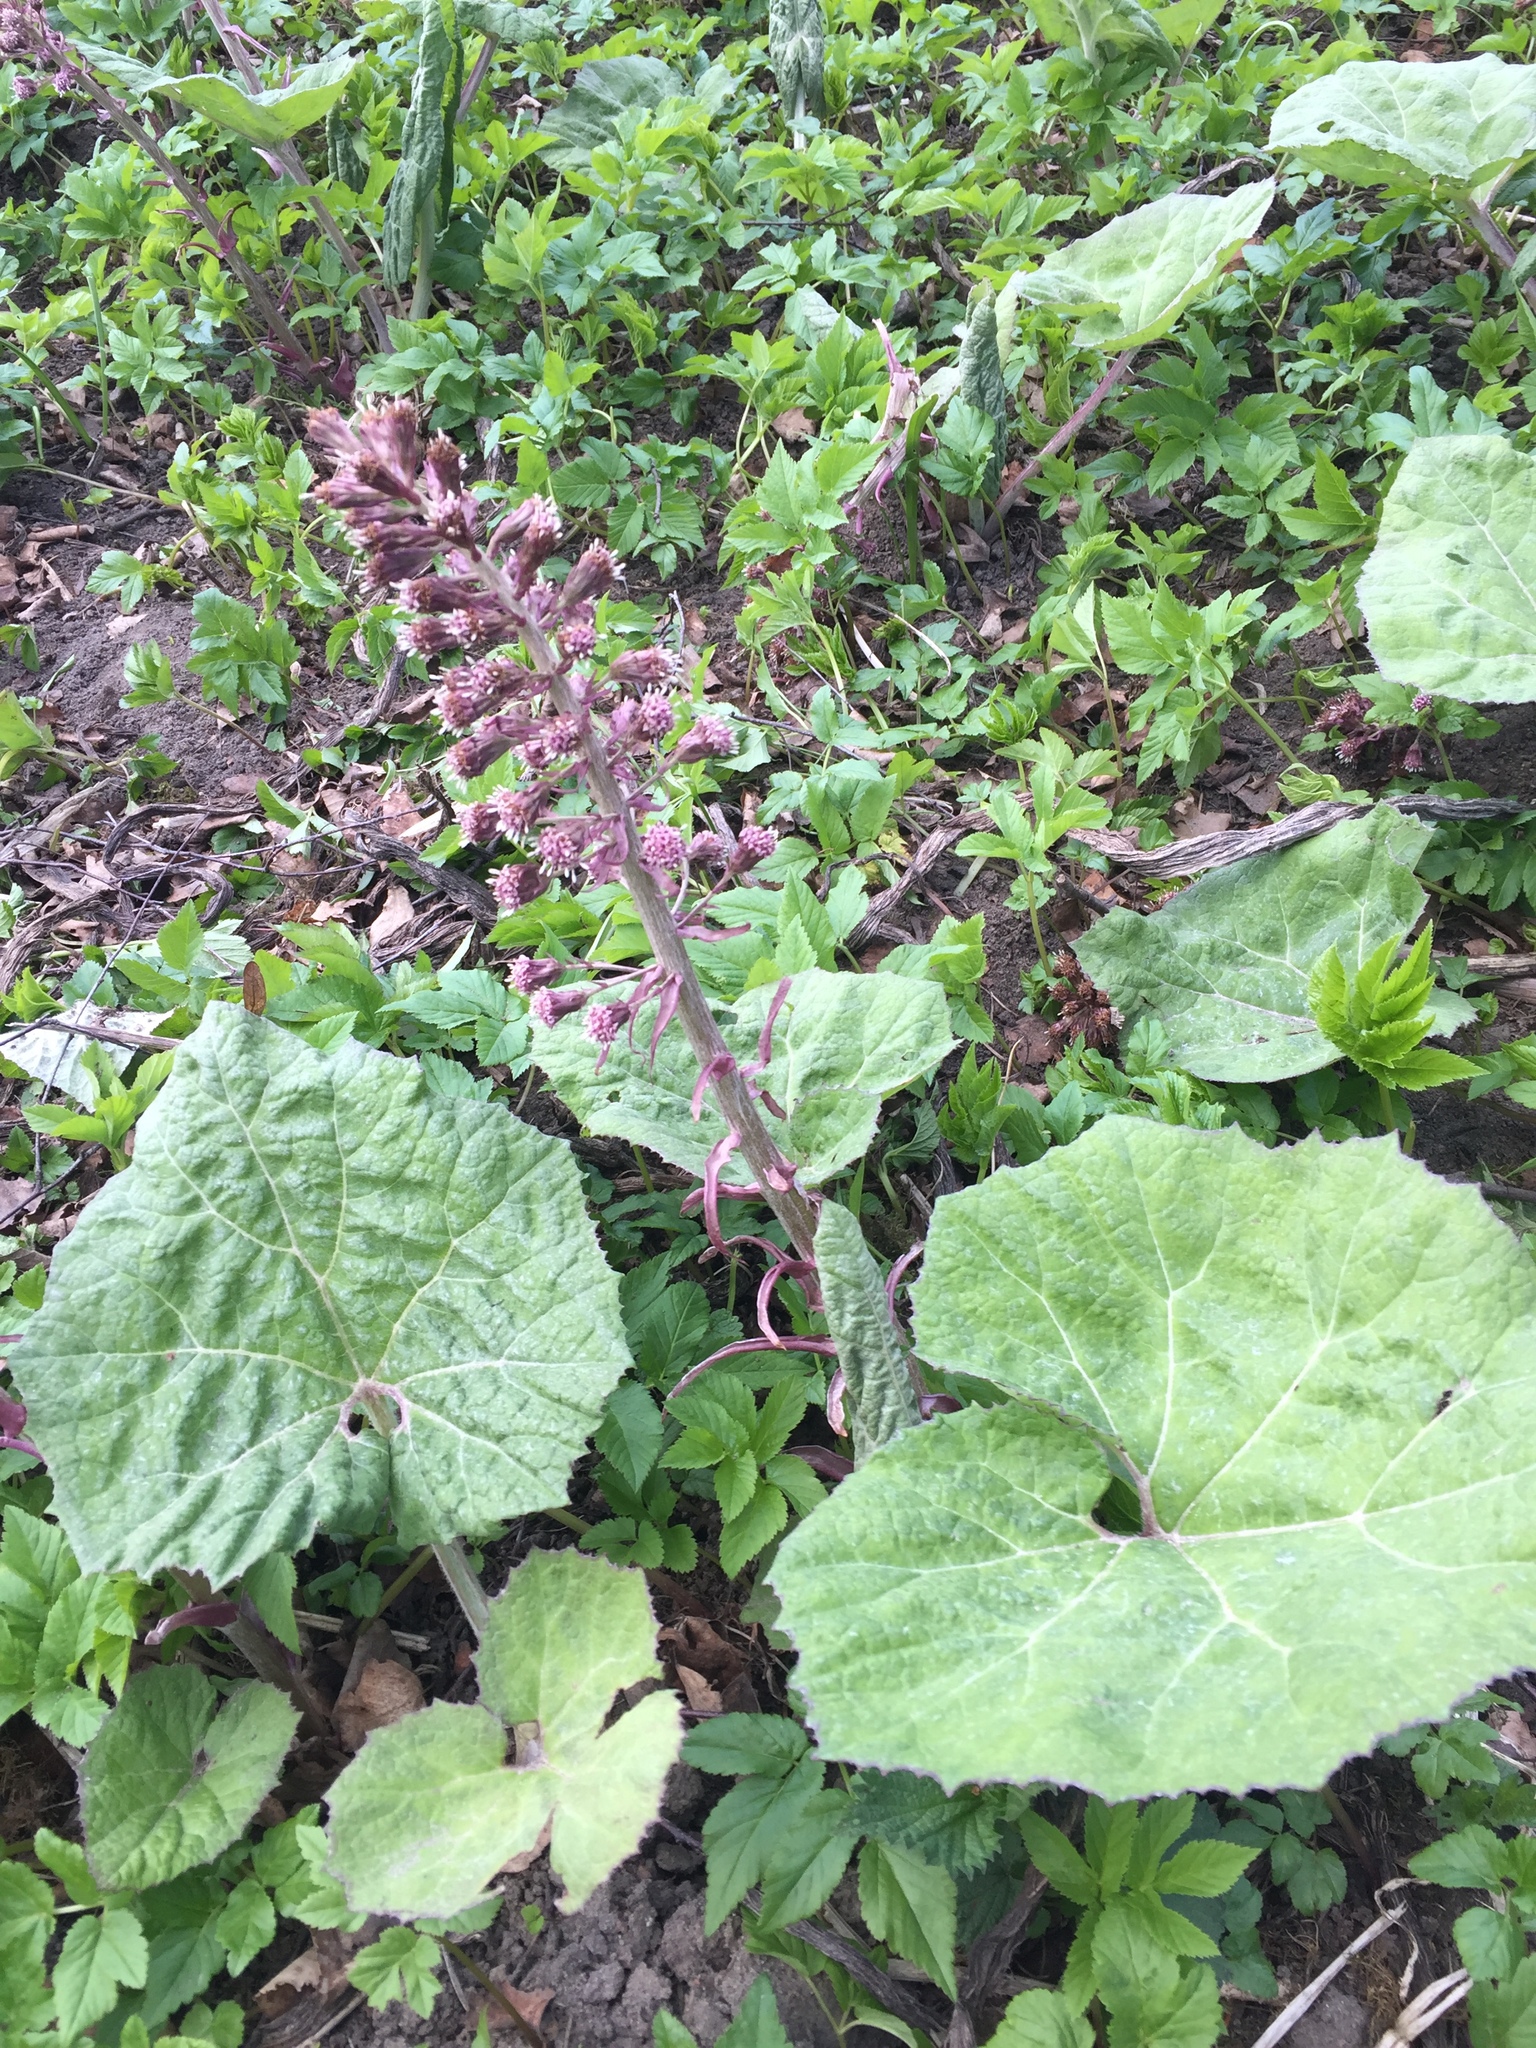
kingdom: Plantae
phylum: Tracheophyta
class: Magnoliopsida
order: Asterales
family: Asteraceae
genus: Petasites
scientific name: Petasites hybridus
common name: Butterbur
